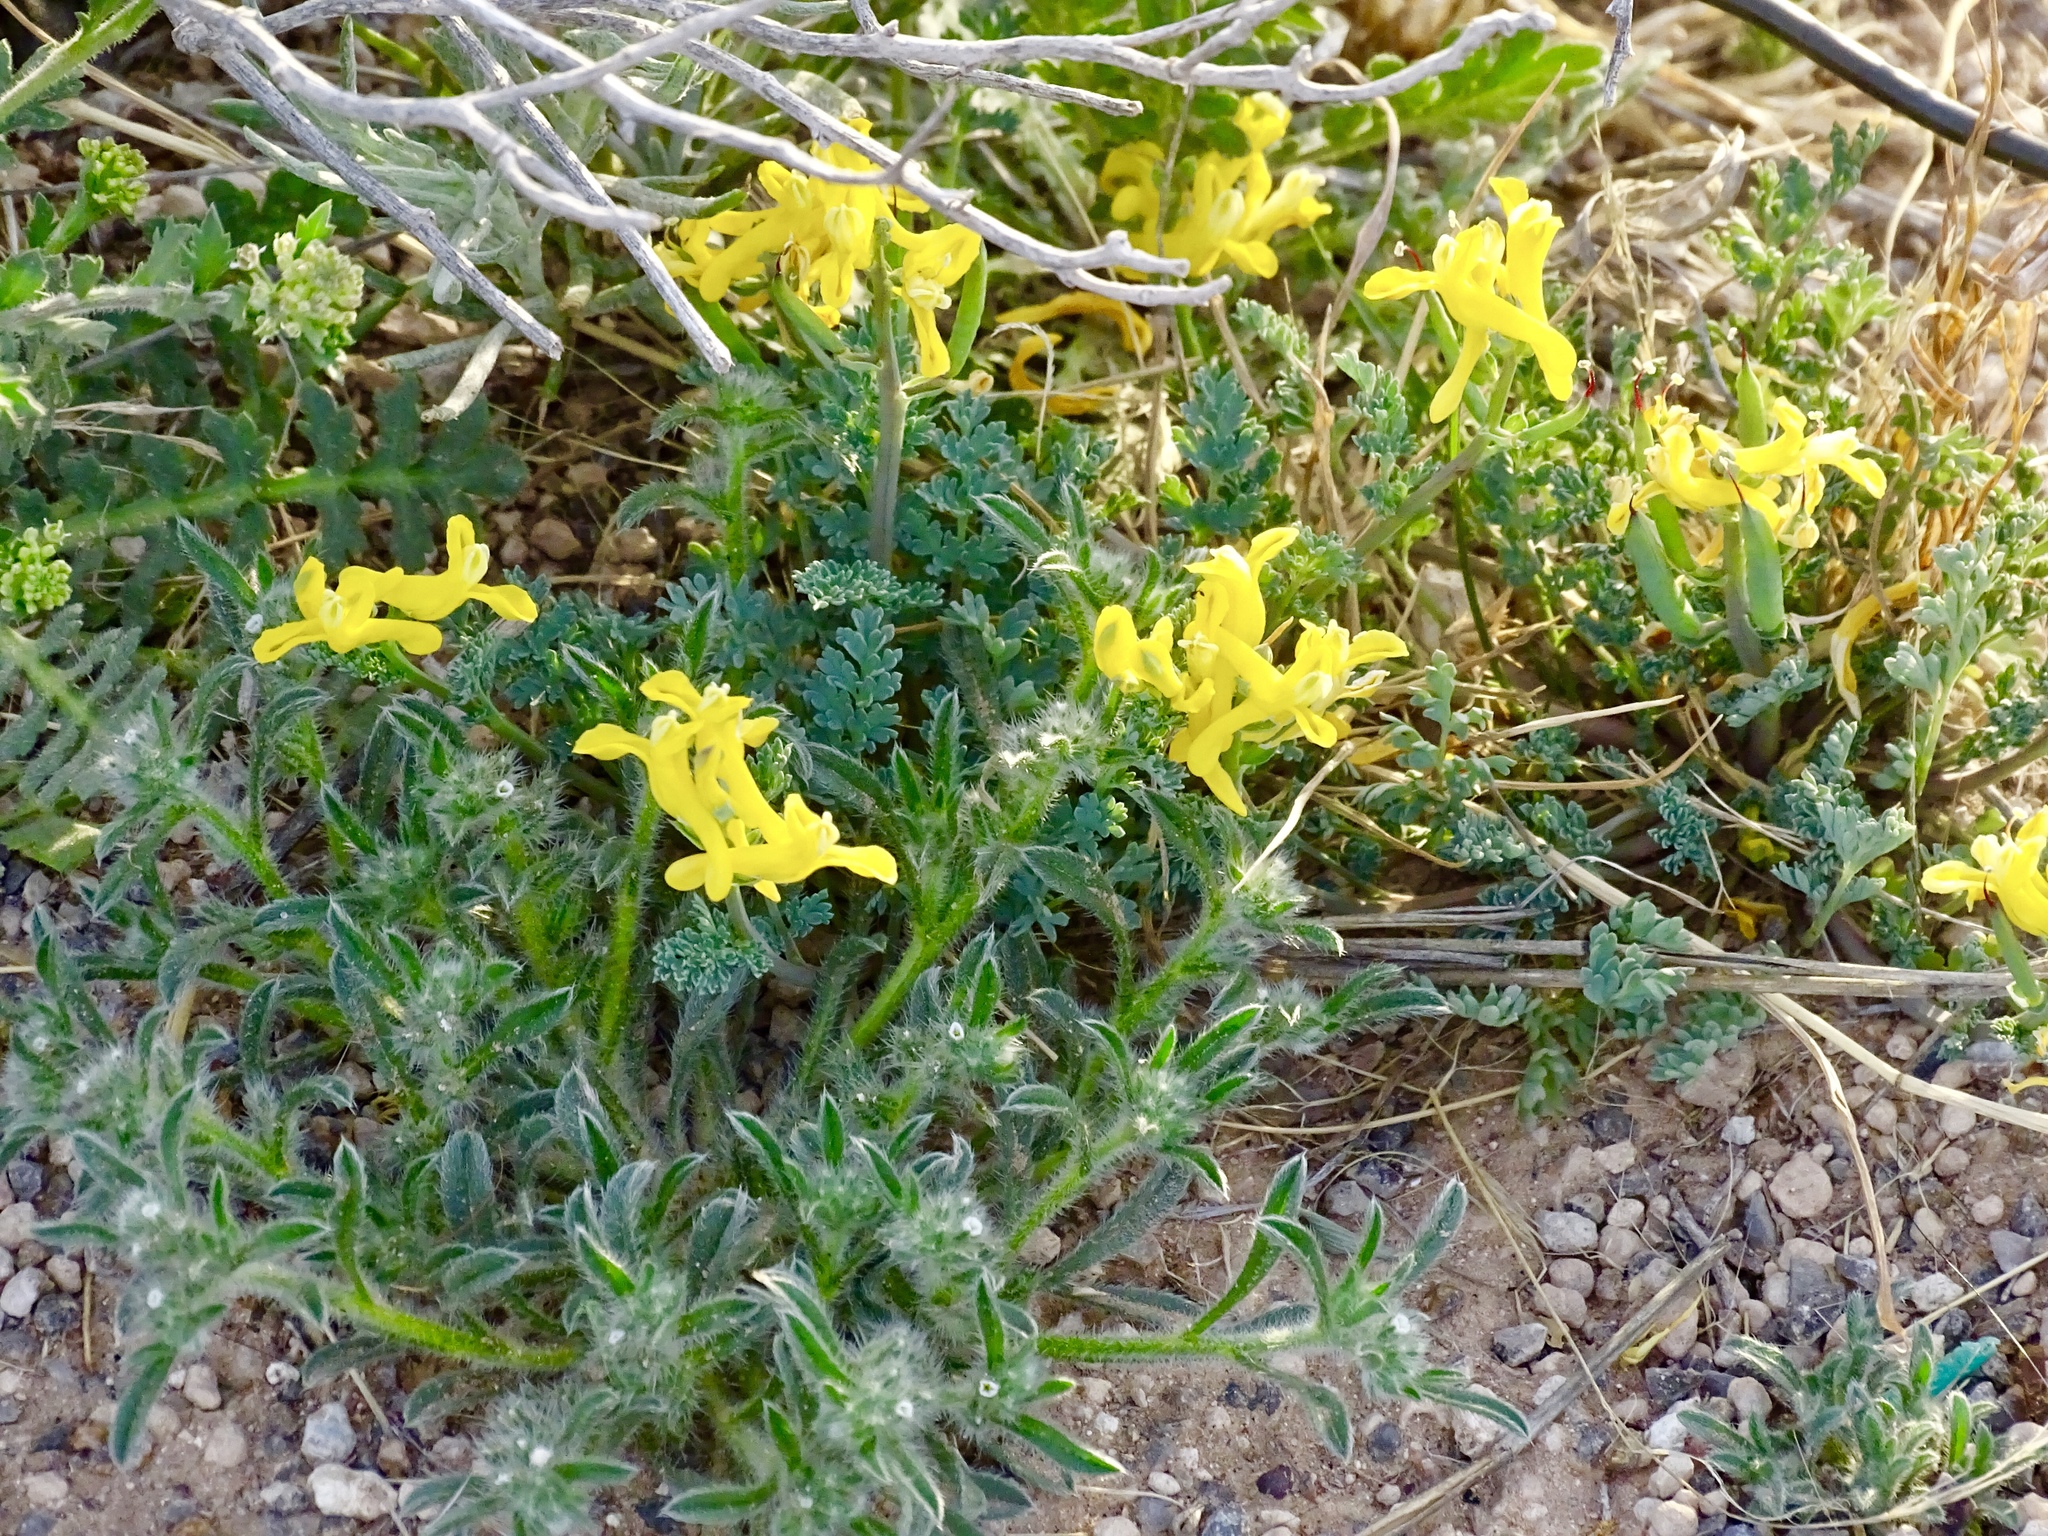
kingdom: Plantae
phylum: Tracheophyta
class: Magnoliopsida
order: Ranunculales
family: Papaveraceae
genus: Corydalis
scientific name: Corydalis aurea
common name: Golden corydalis
